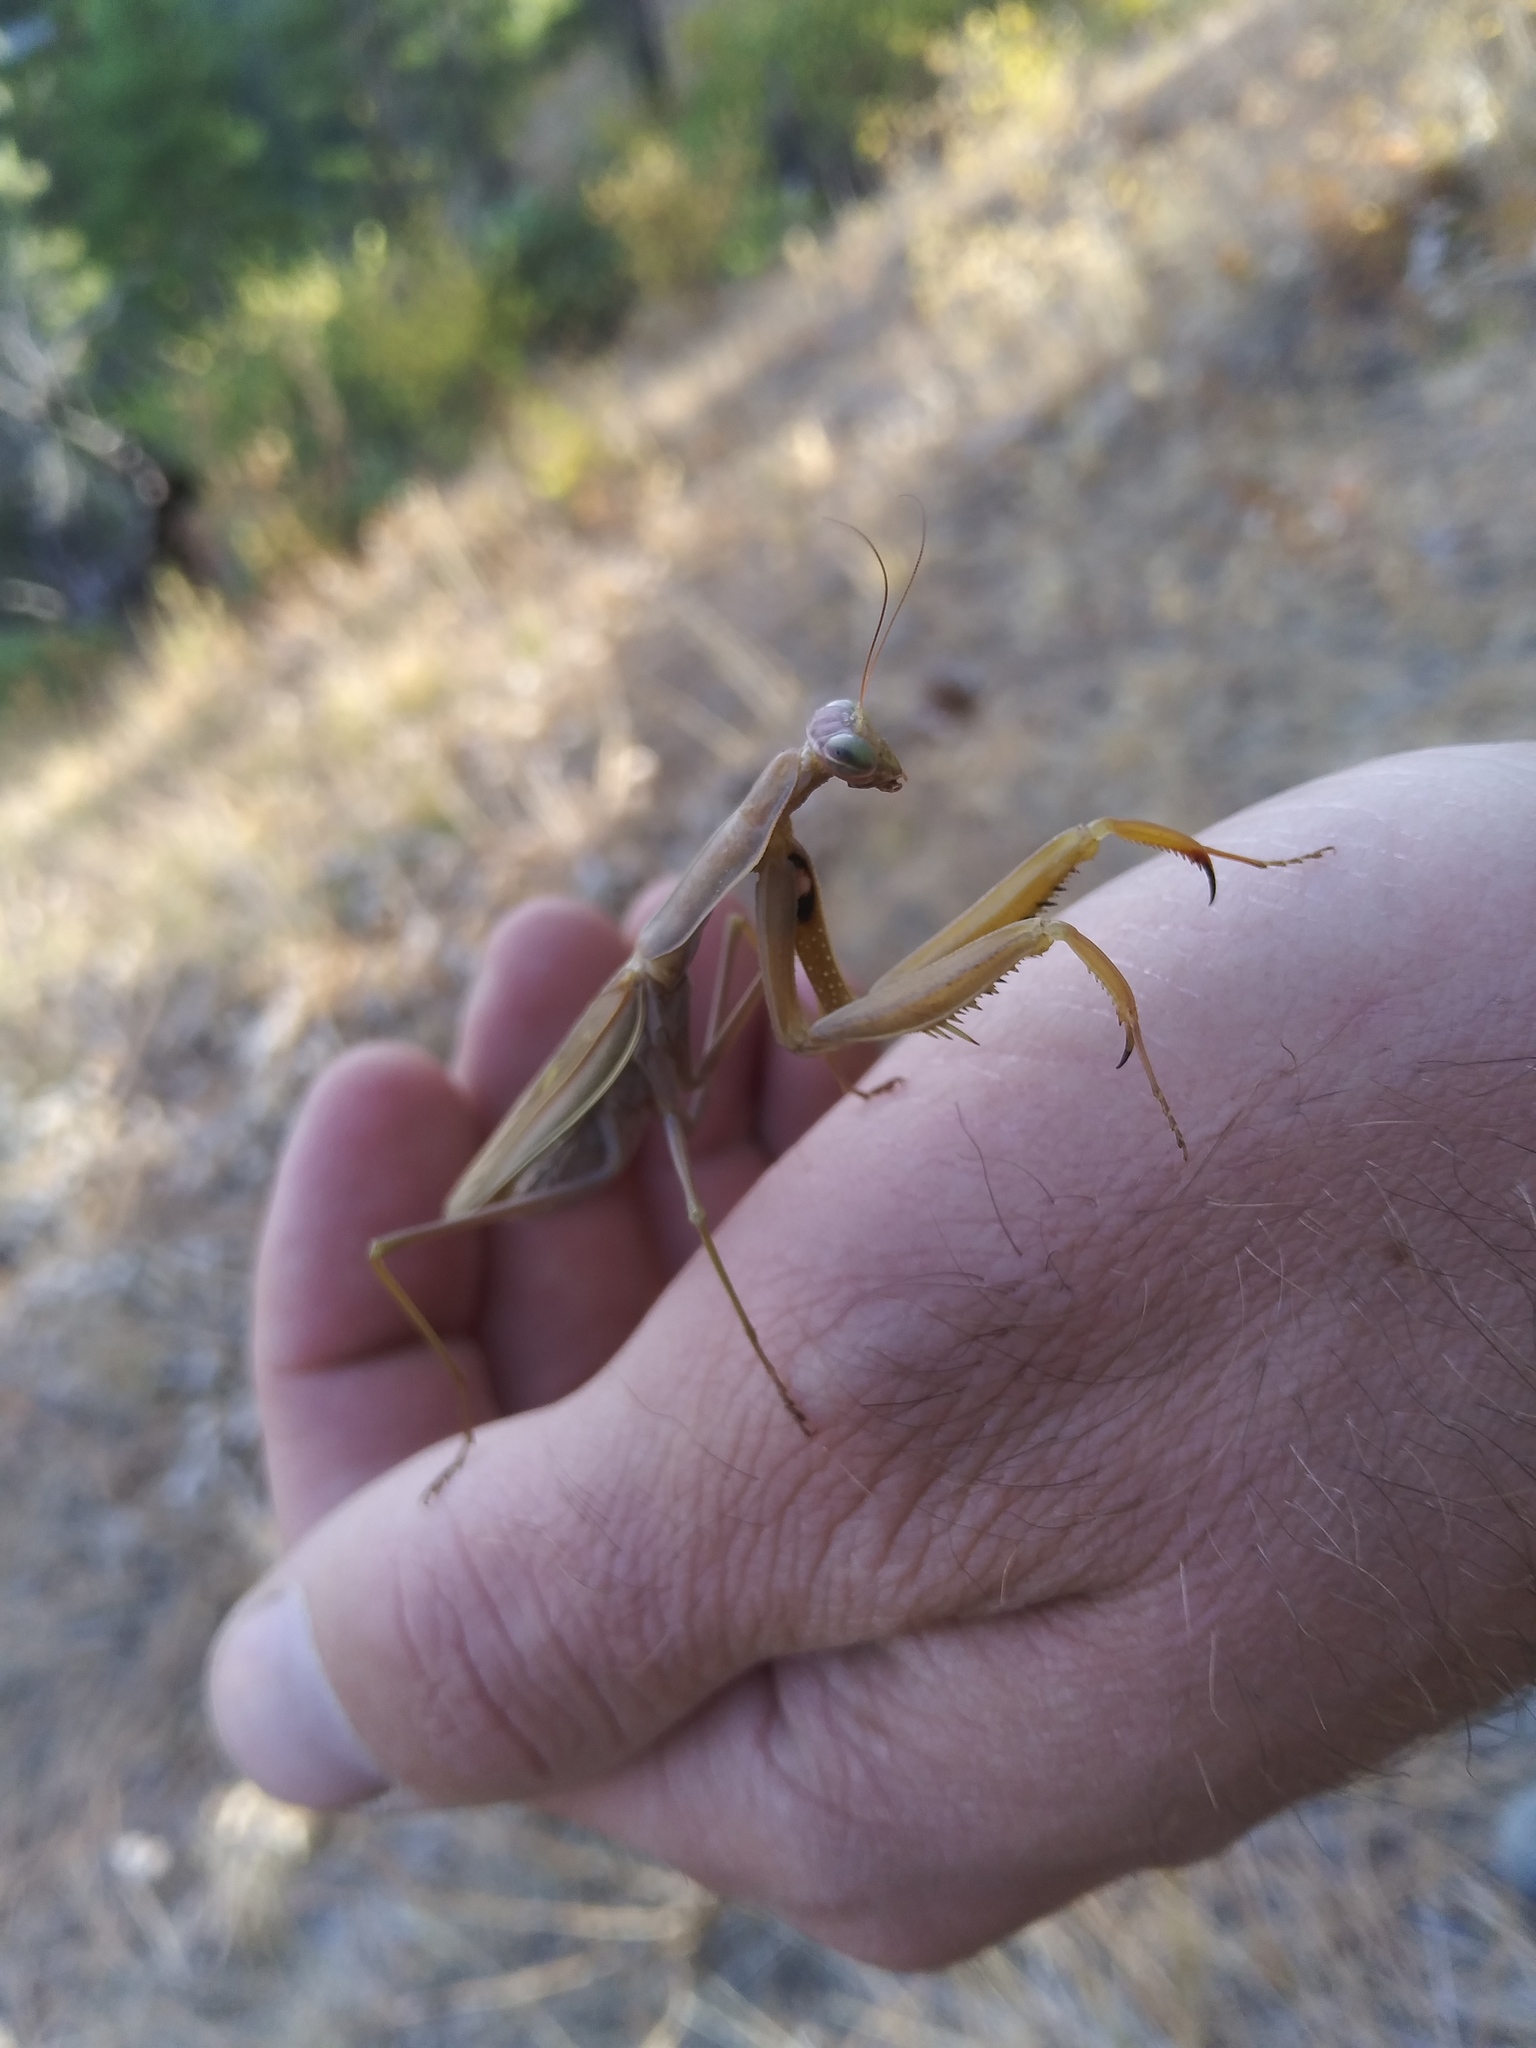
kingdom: Animalia
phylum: Arthropoda
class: Insecta
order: Mantodea
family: Mantidae
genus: Mantis
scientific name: Mantis religiosa
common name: Praying mantis
